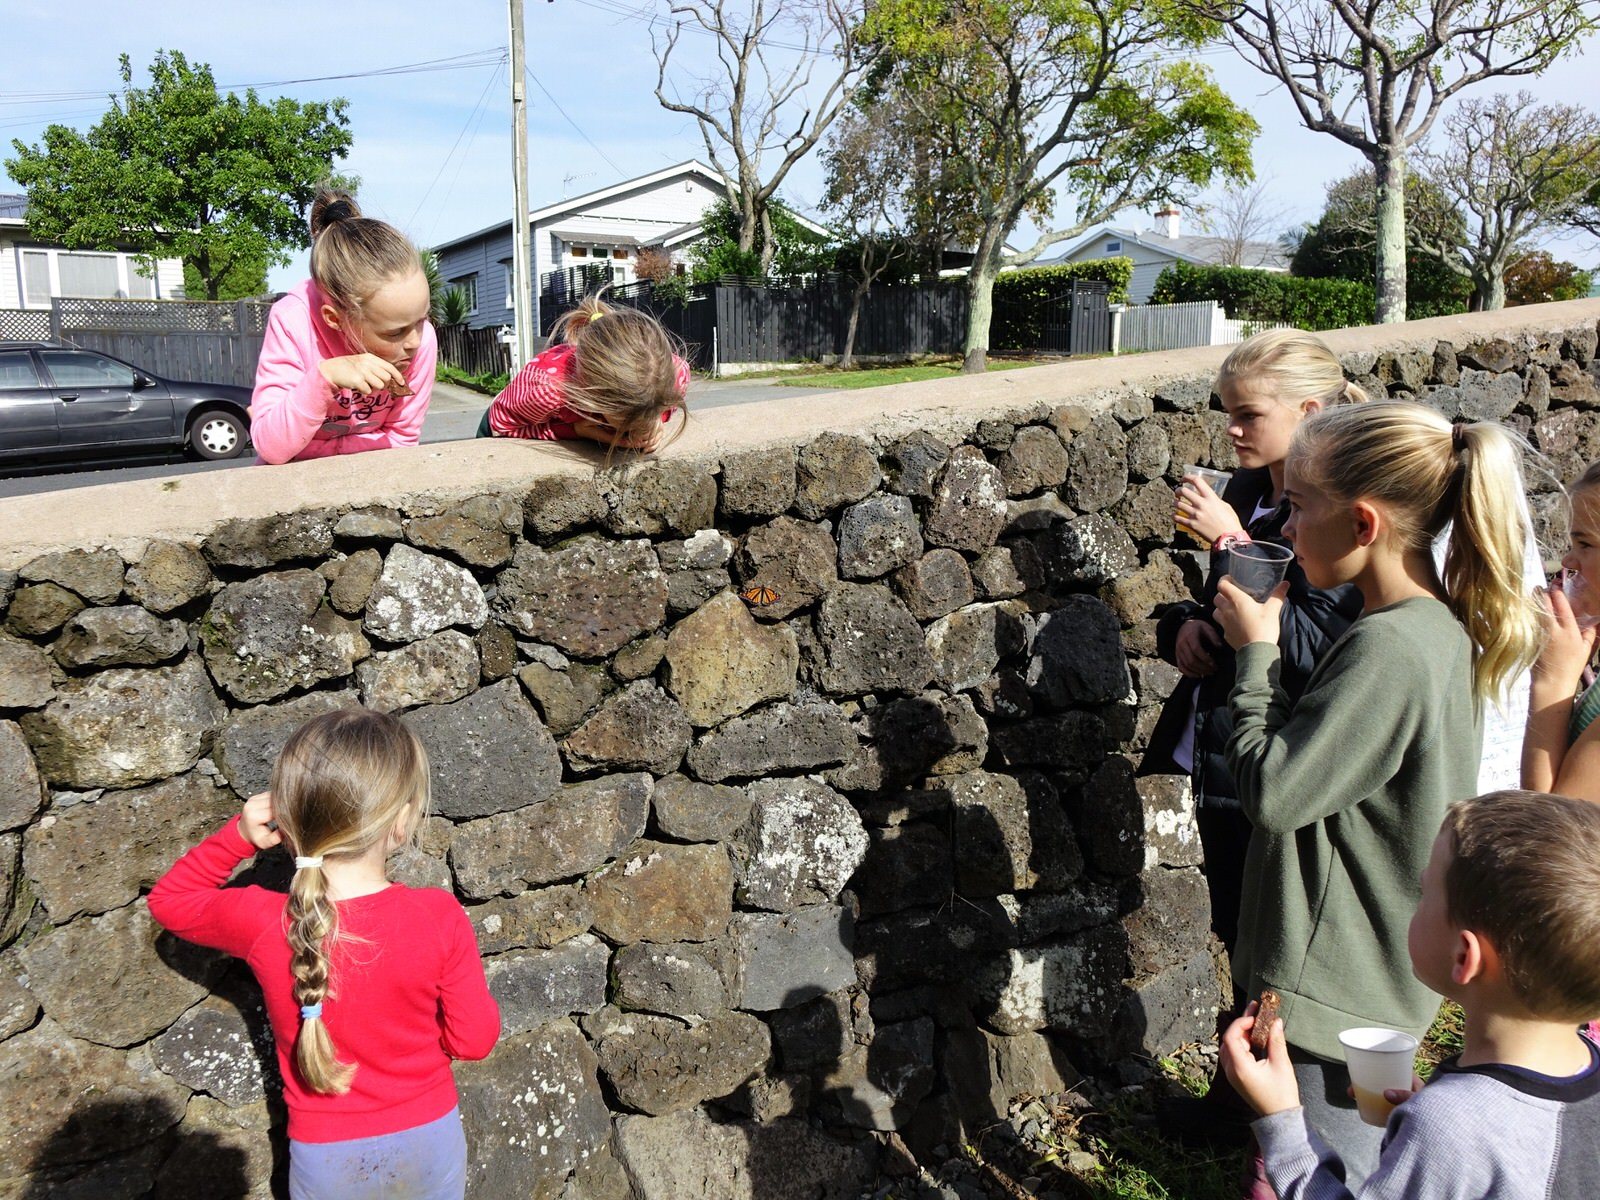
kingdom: Animalia
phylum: Arthropoda
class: Insecta
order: Lepidoptera
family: Nymphalidae
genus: Danaus
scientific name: Danaus plexippus
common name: Monarch
